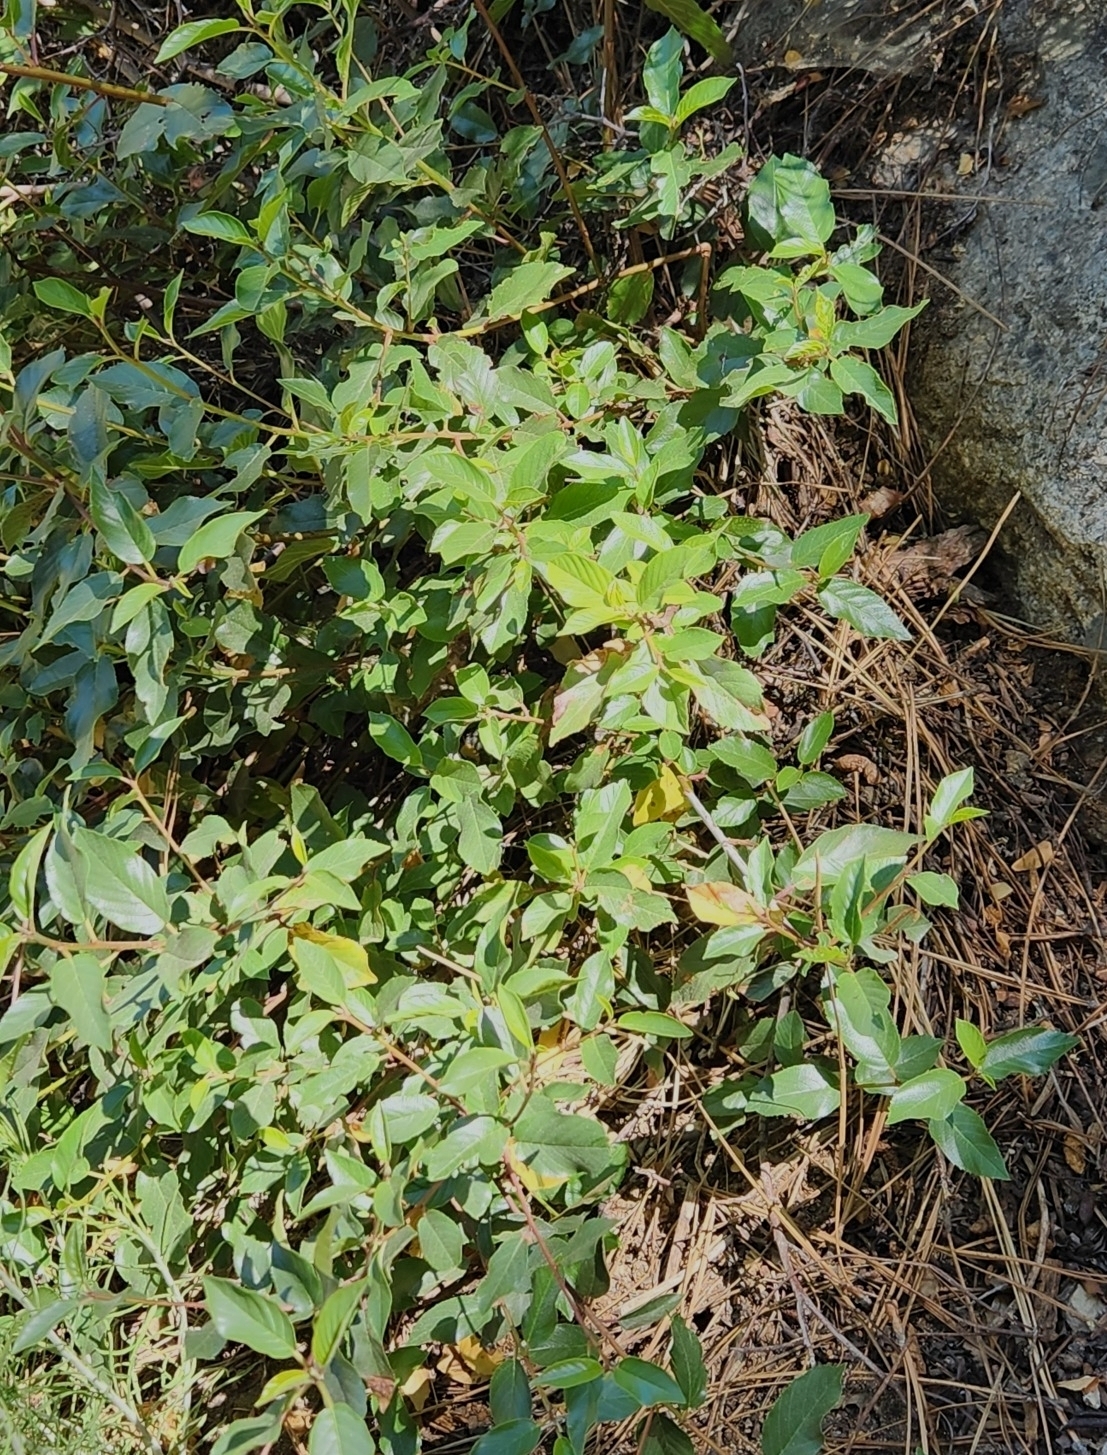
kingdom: Plantae
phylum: Tracheophyta
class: Magnoliopsida
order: Rosales
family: Rhamnaceae
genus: Frangula
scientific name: Frangula californica
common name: California buckthorn
